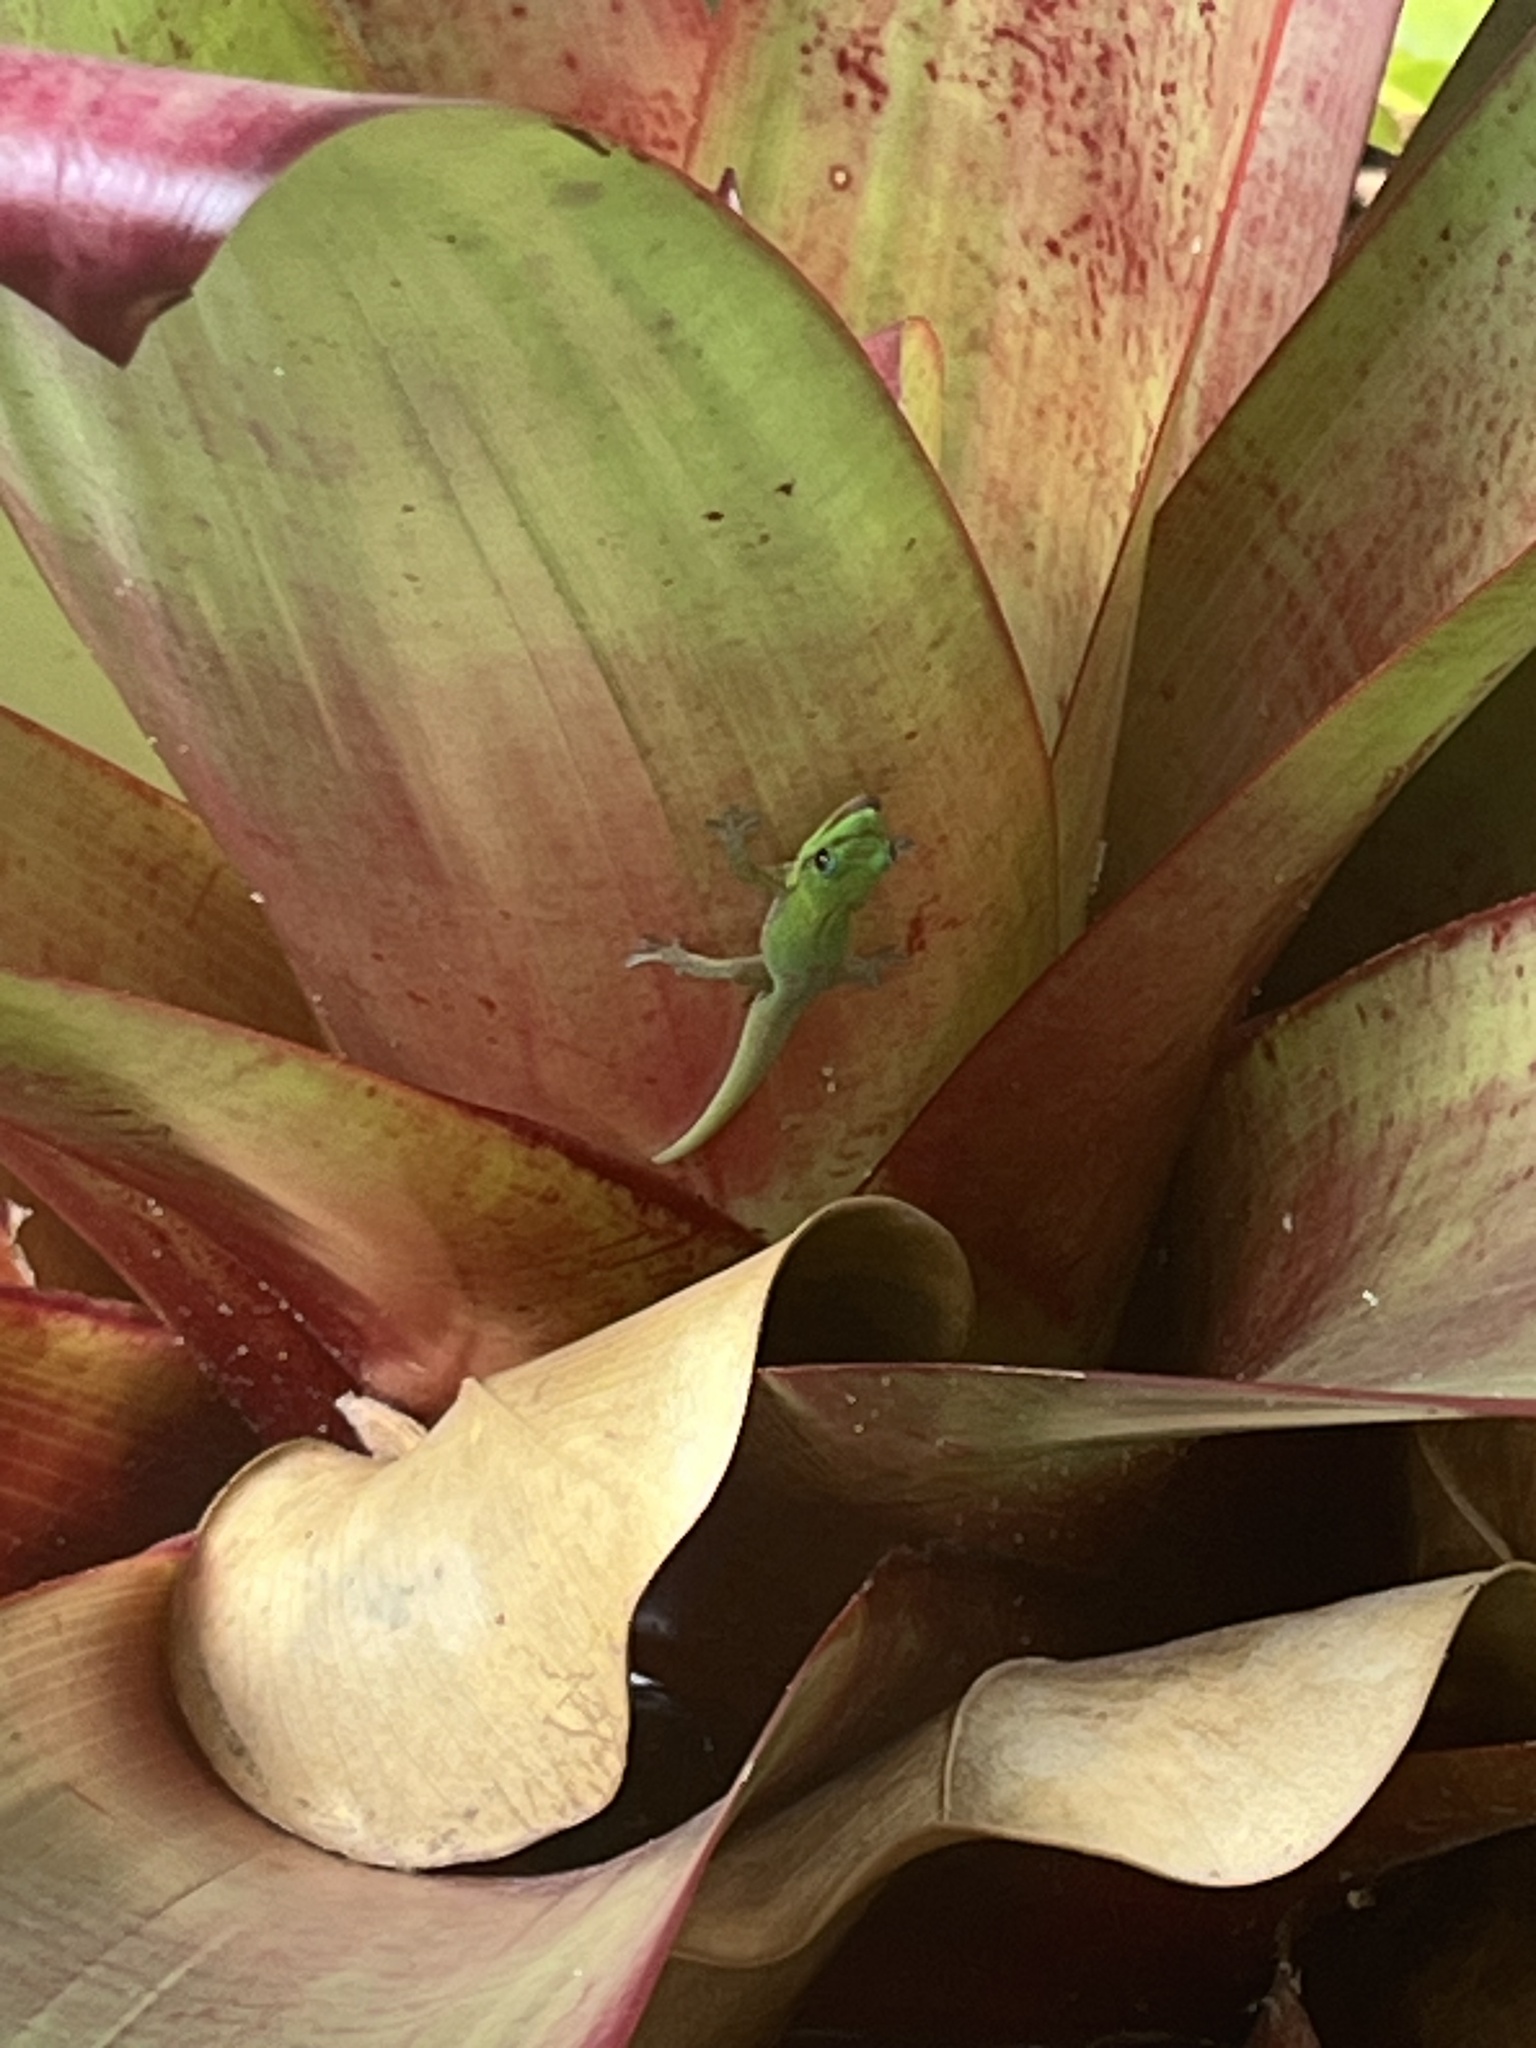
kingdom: Animalia
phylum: Chordata
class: Squamata
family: Gekkonidae
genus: Phelsuma
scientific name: Phelsuma laticauda
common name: Gold dust day gecko
